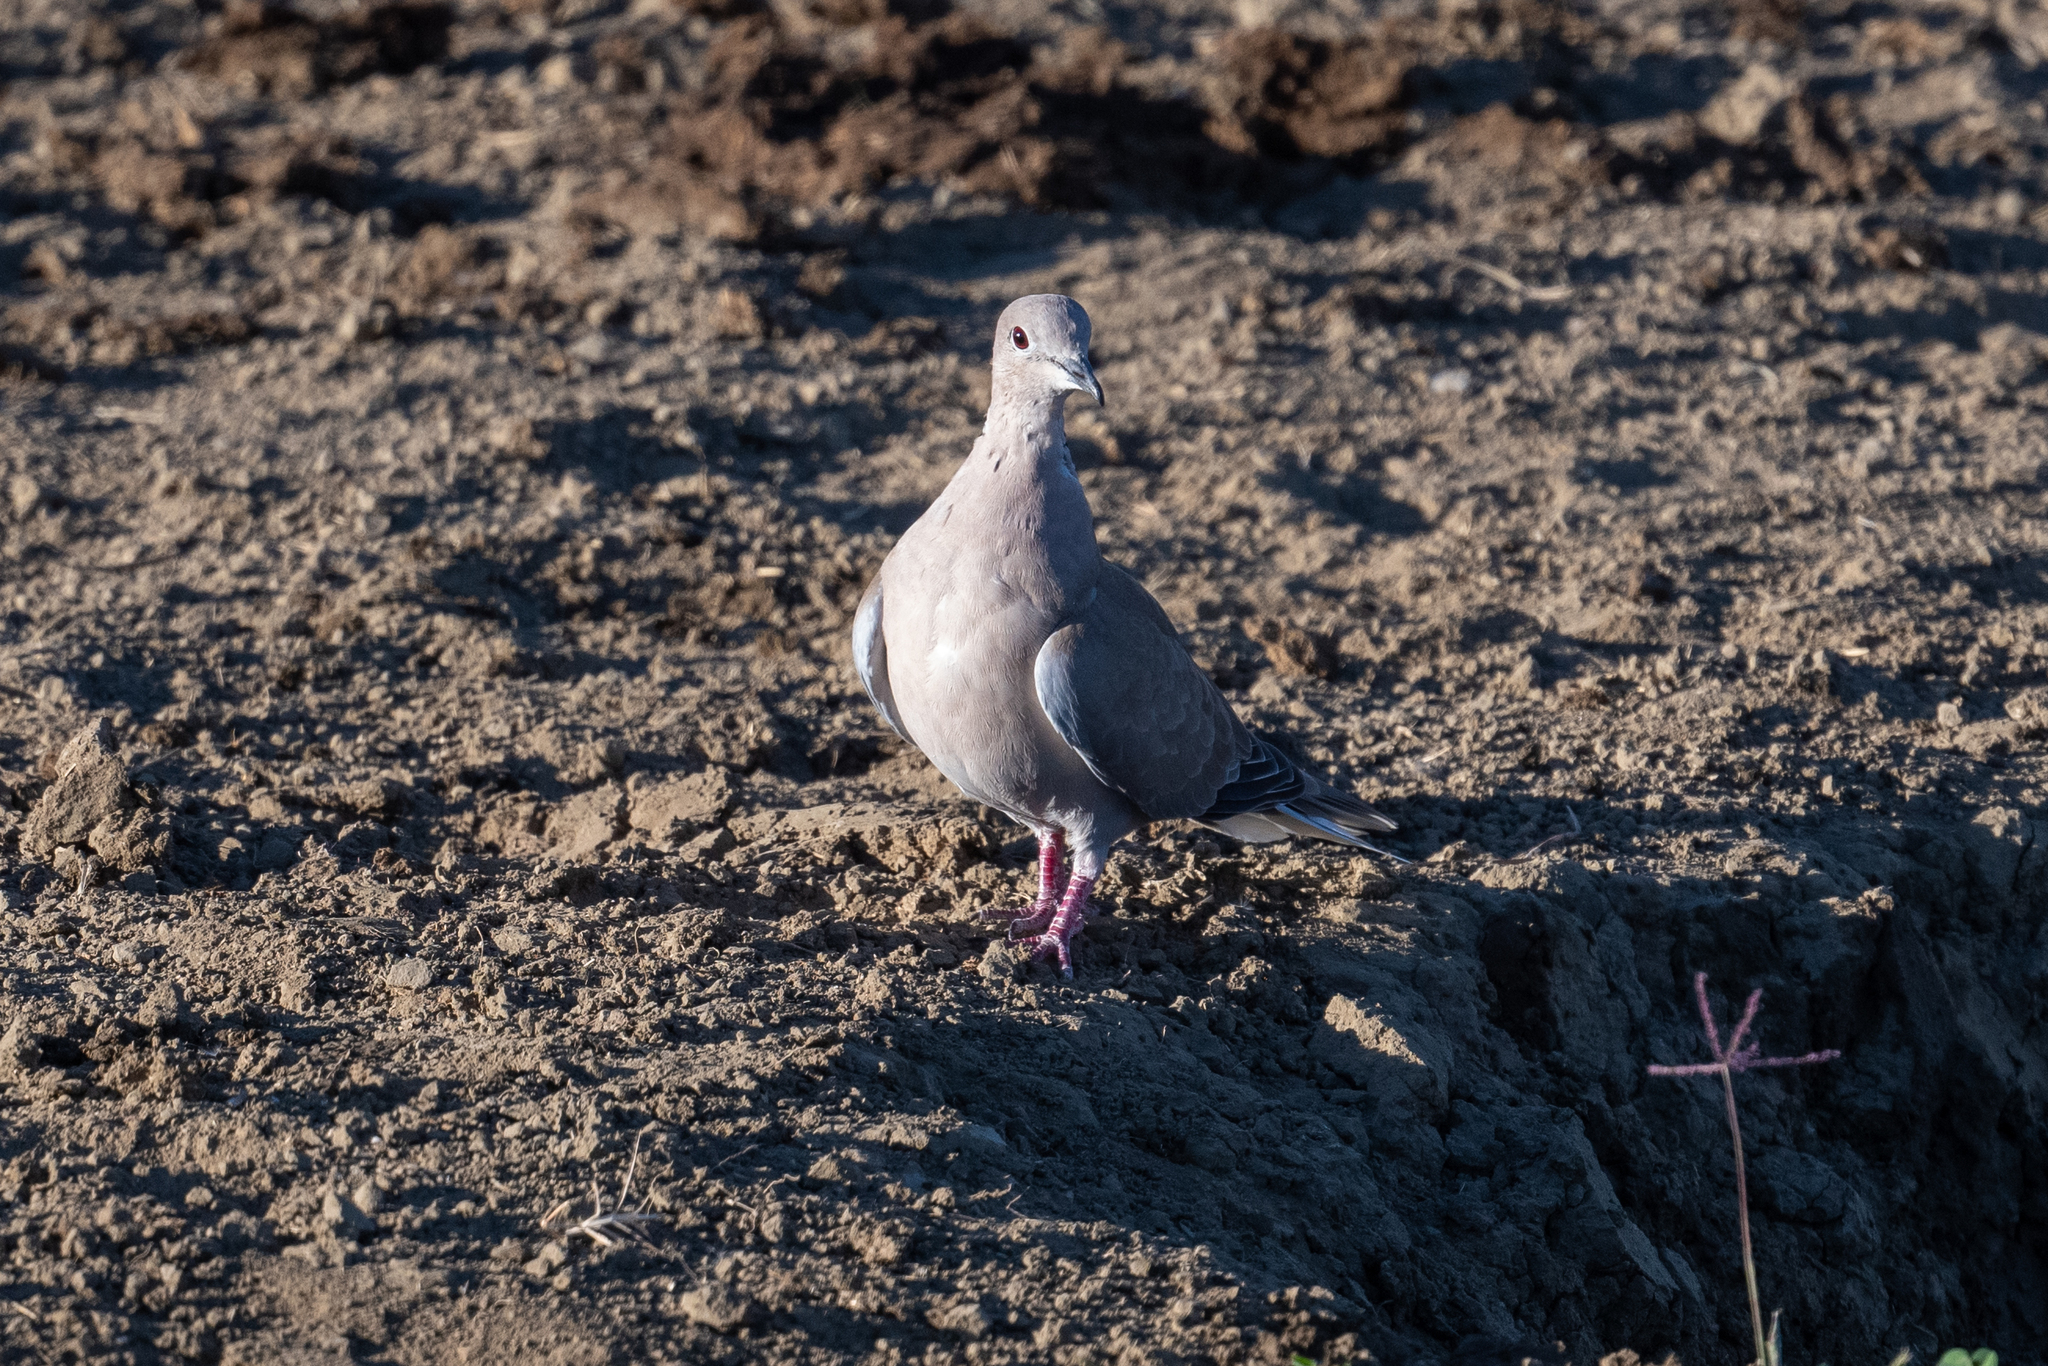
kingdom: Animalia
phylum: Chordata
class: Aves
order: Columbiformes
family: Columbidae
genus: Streptopelia
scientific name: Streptopelia decaocto
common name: Eurasian collared dove
